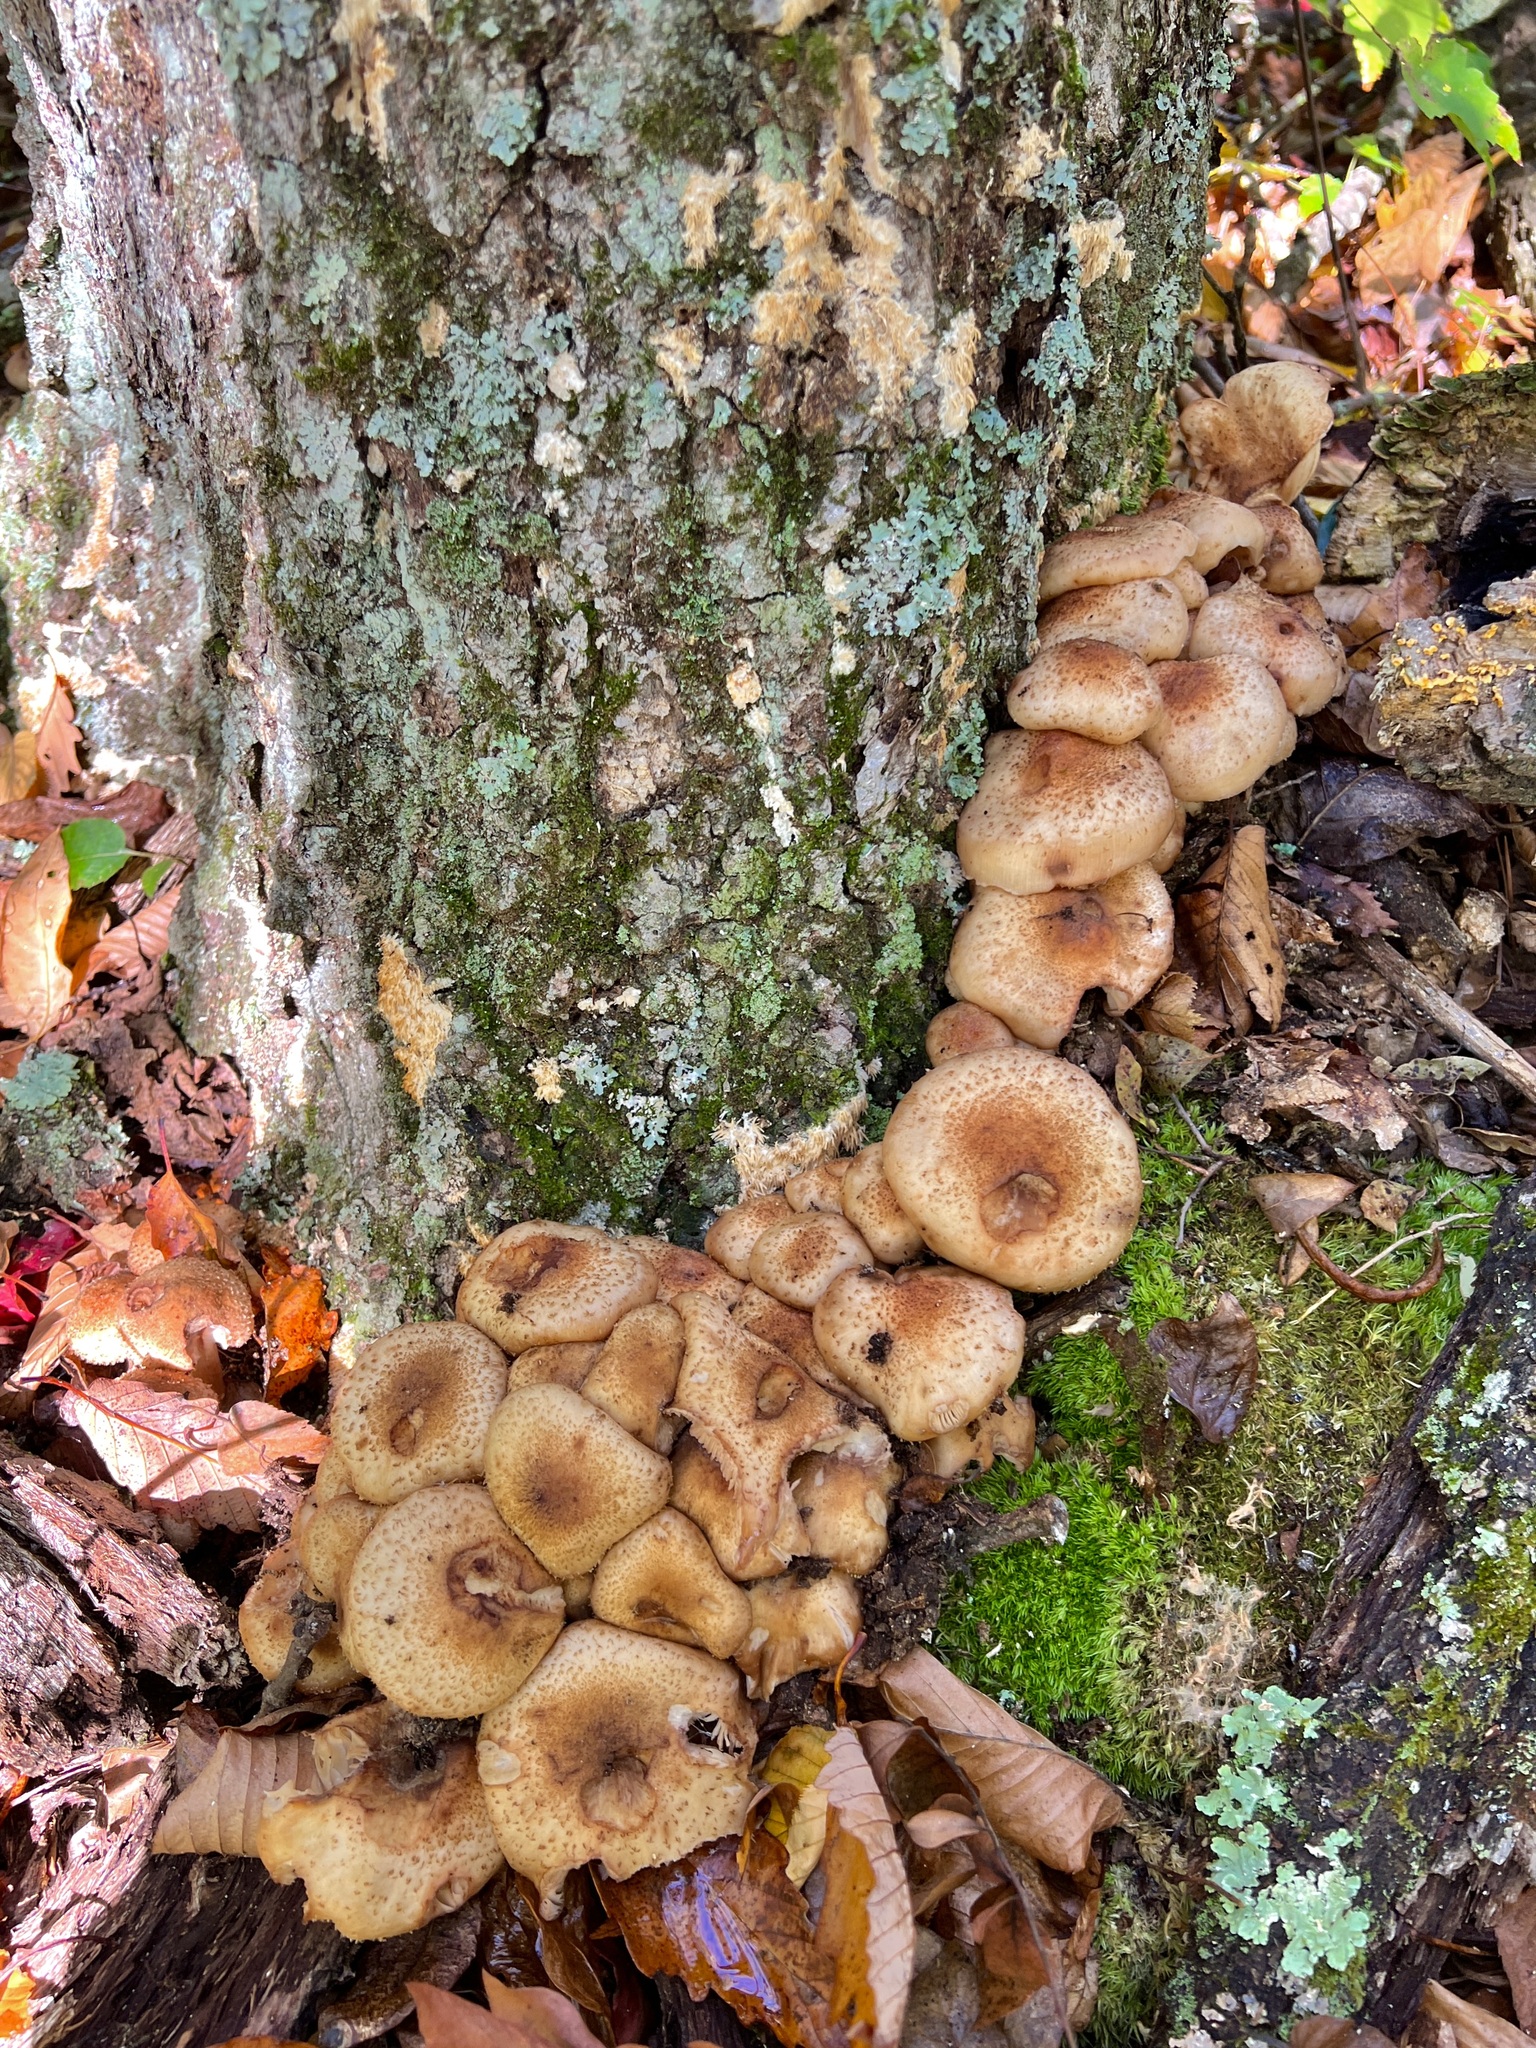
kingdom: Fungi
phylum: Basidiomycota
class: Agaricomycetes
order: Agaricales
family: Physalacriaceae
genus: Armillaria
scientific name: Armillaria mellea
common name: Honey fungus
